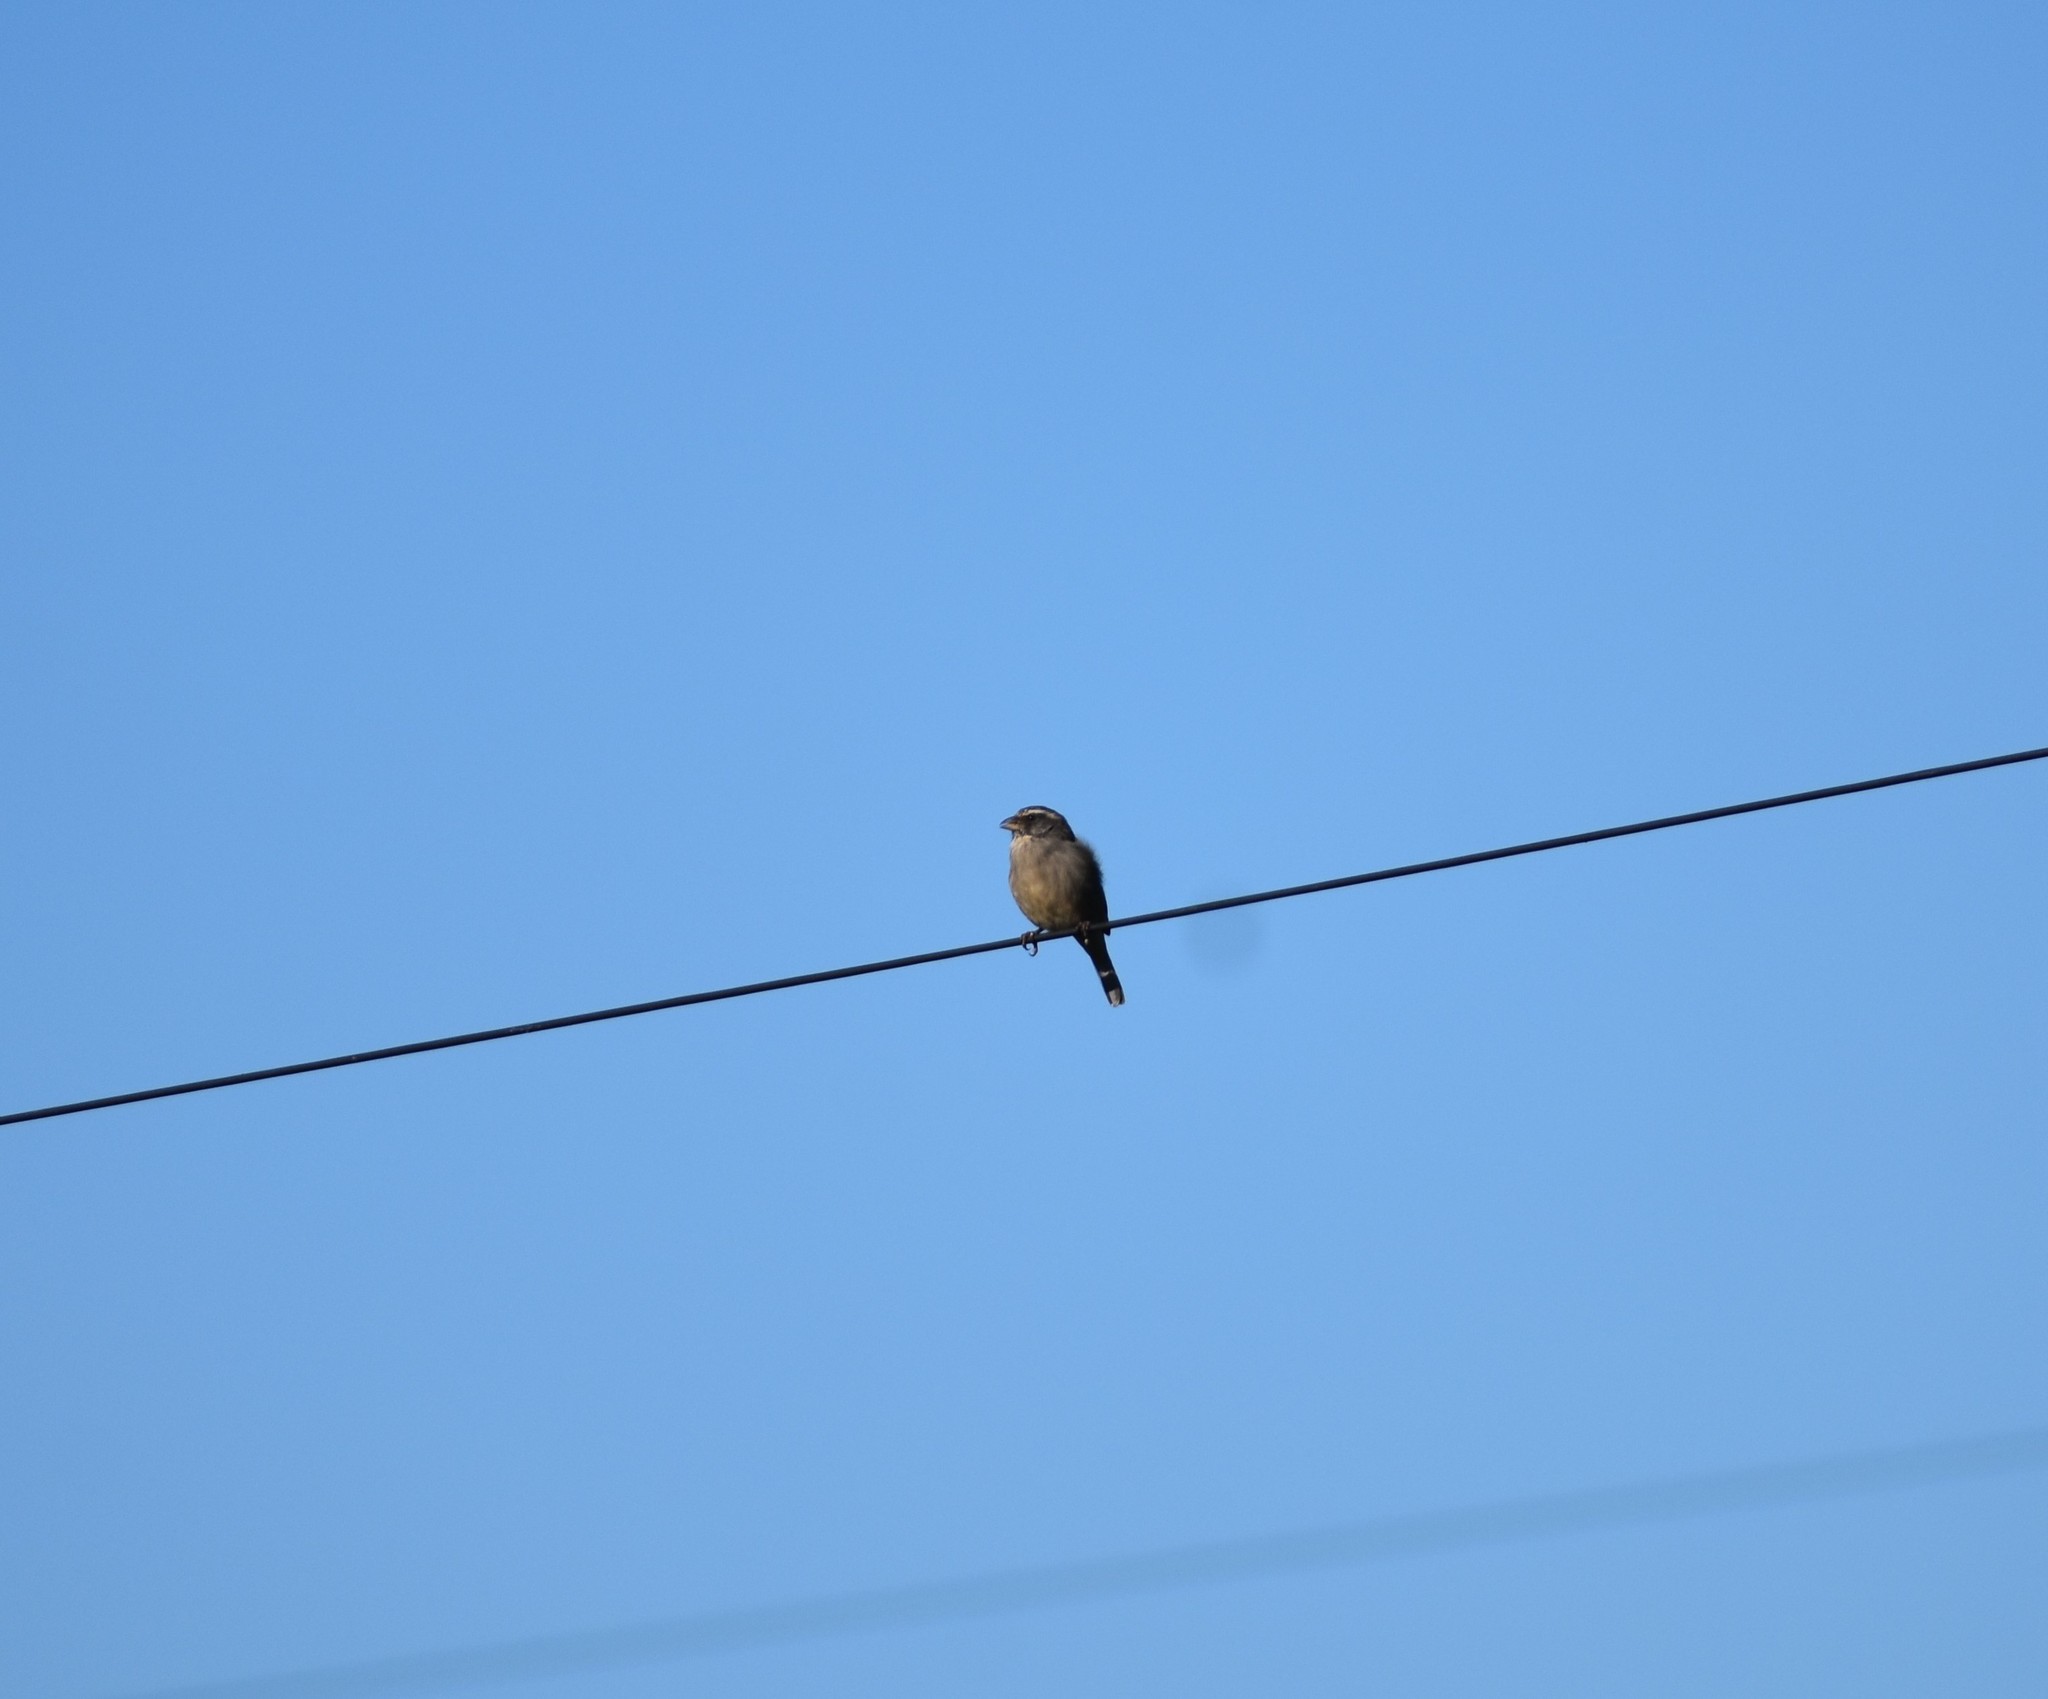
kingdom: Animalia
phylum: Chordata
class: Aves
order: Passeriformes
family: Fringillidae
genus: Crithagra
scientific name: Crithagra gularis
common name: Streaky-headed seedeater
